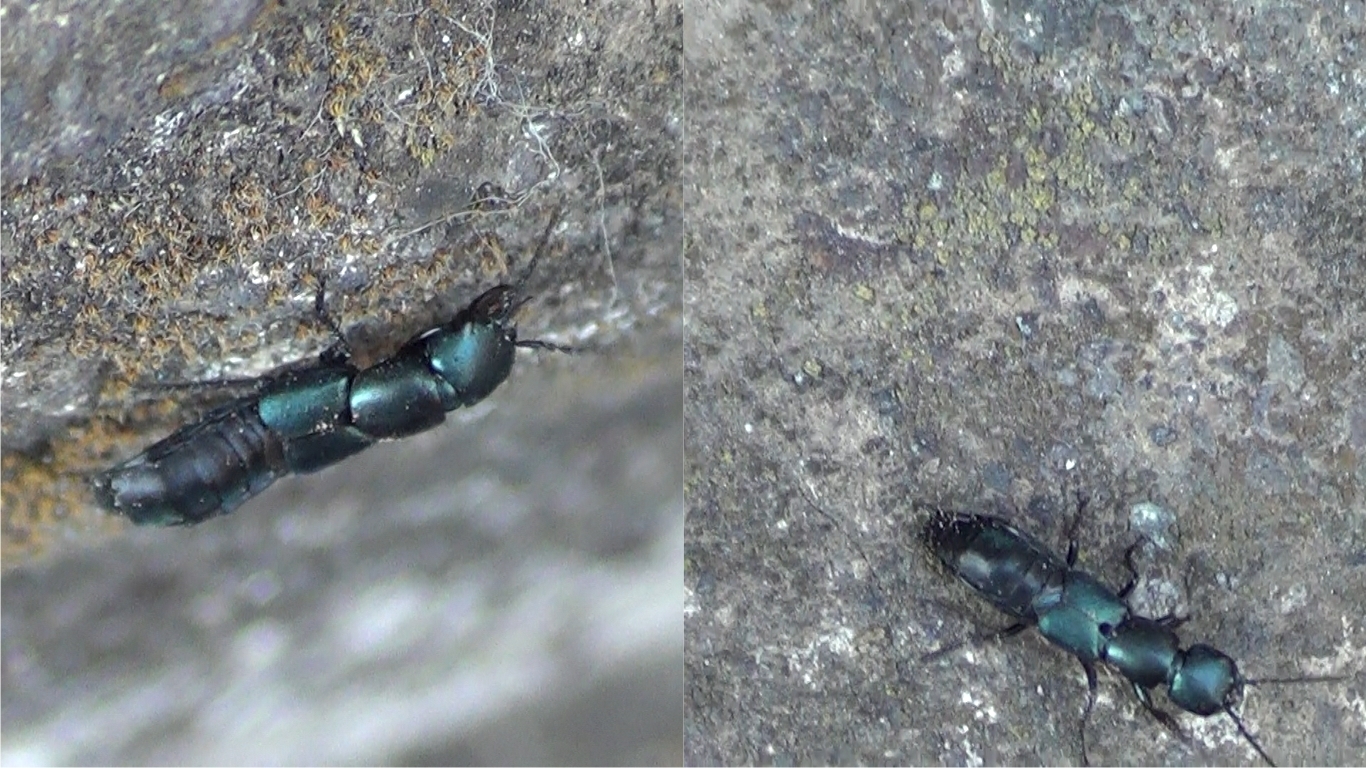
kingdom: Animalia
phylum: Arthropoda
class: Insecta
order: Coleoptera
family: Staphylinidae
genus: Ocypus
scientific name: Ocypus ophthalmicus
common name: Blue rove-beetle
